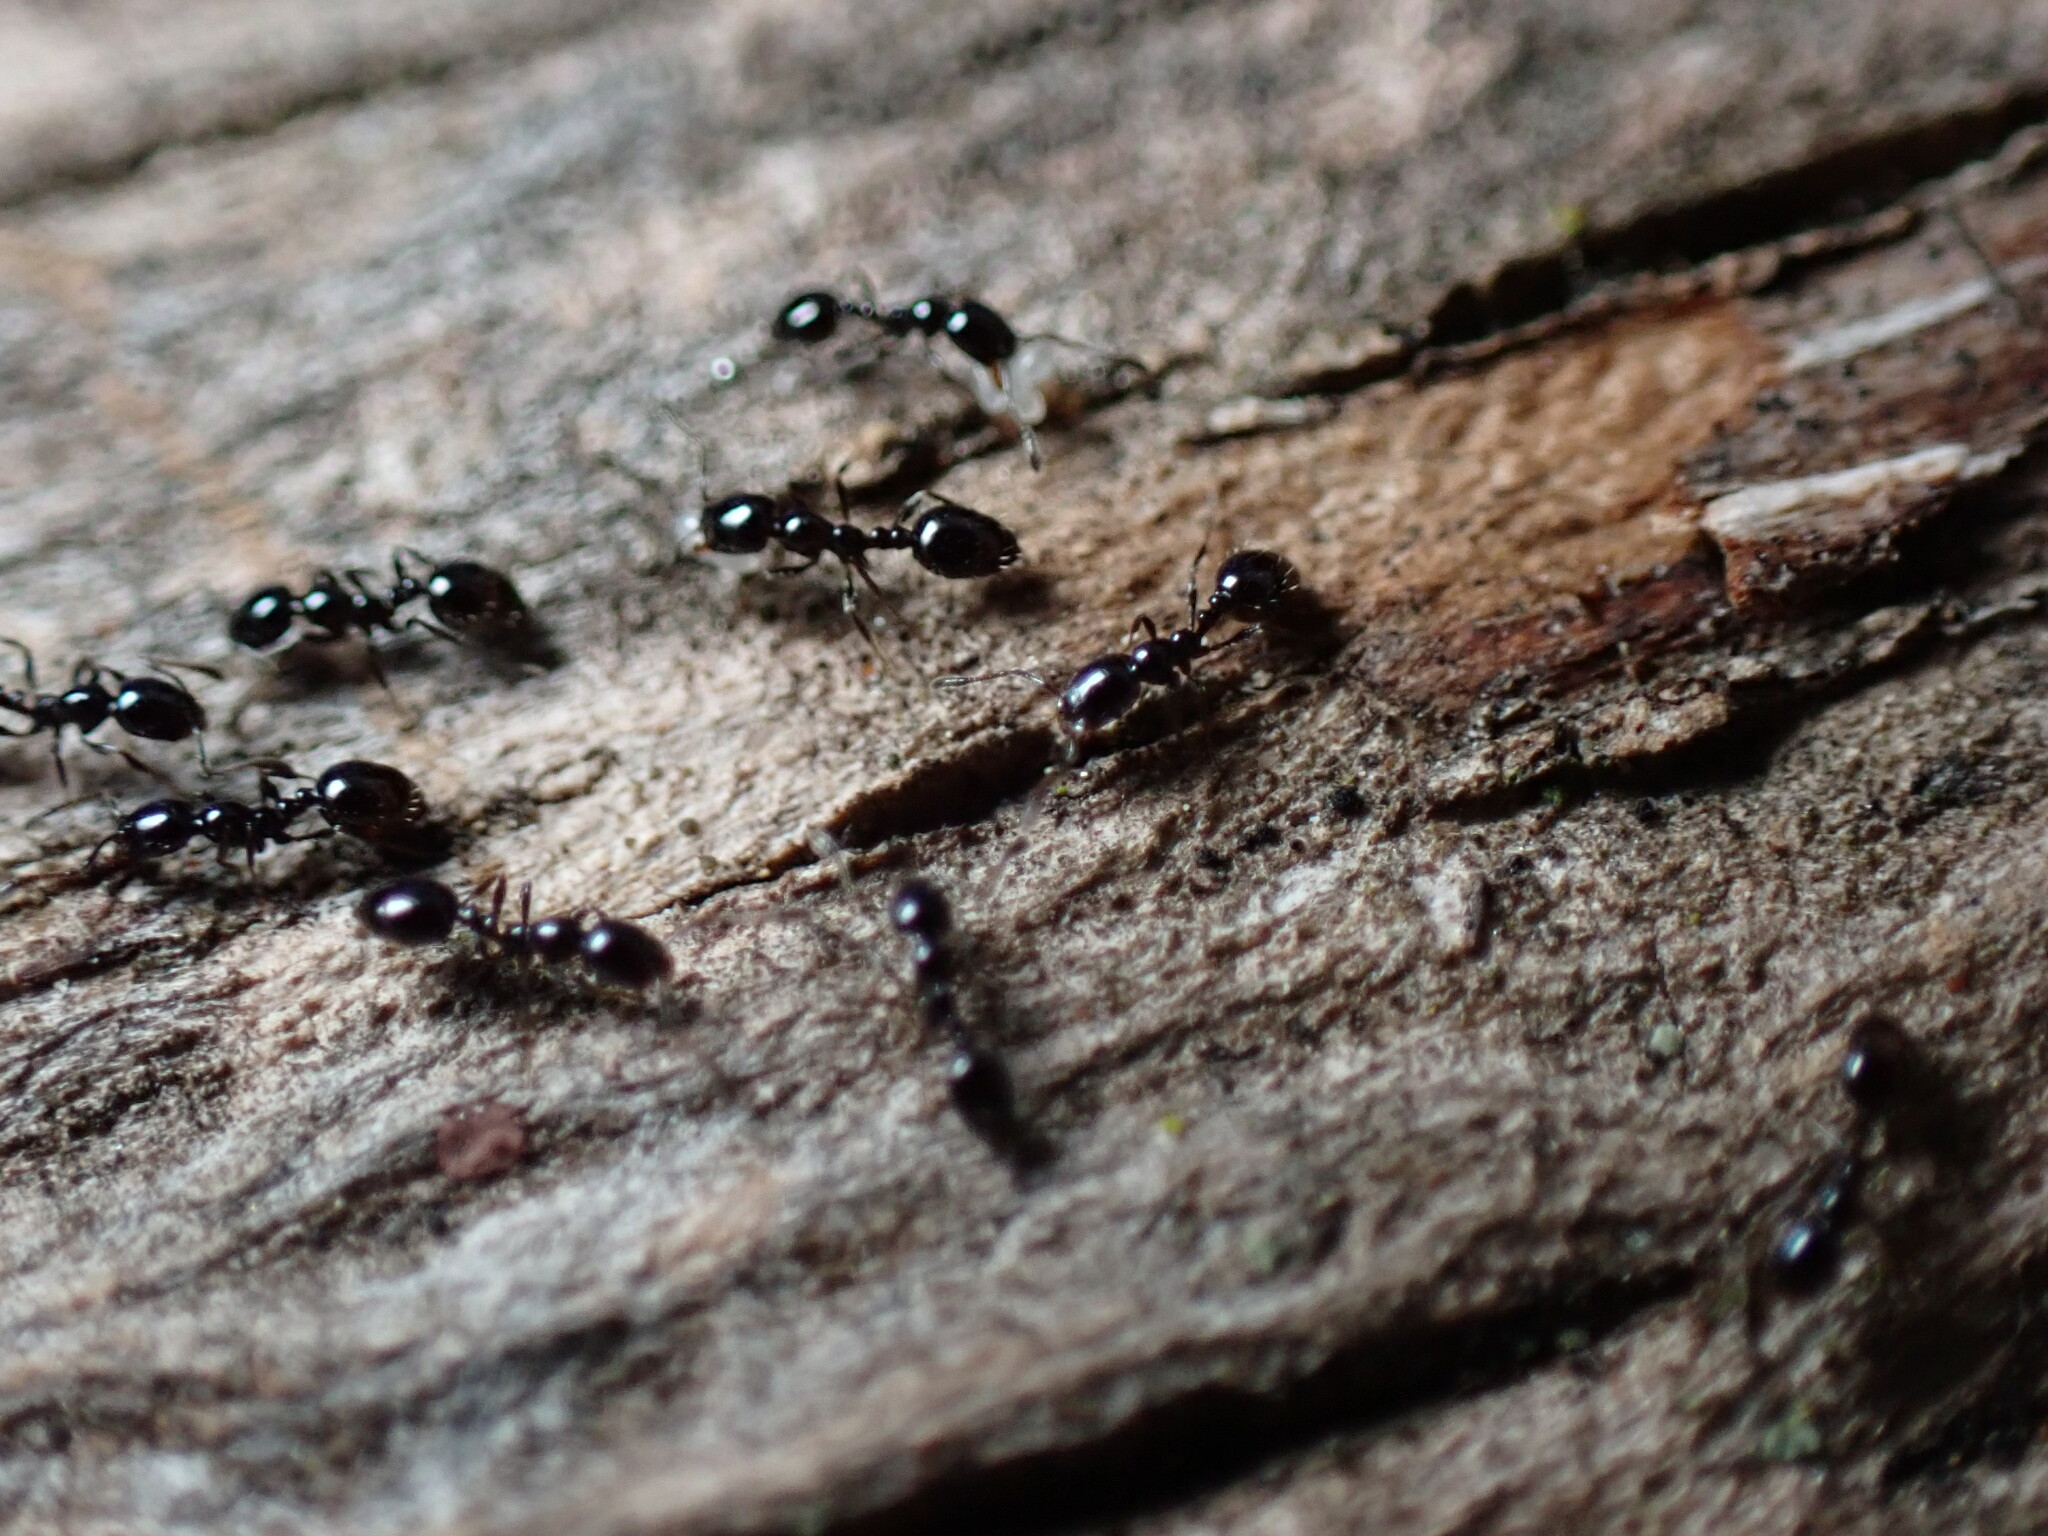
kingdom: Animalia
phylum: Arthropoda
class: Insecta
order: Hymenoptera
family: Formicidae
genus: Monomorium
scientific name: Monomorium minimum
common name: Little black ant
